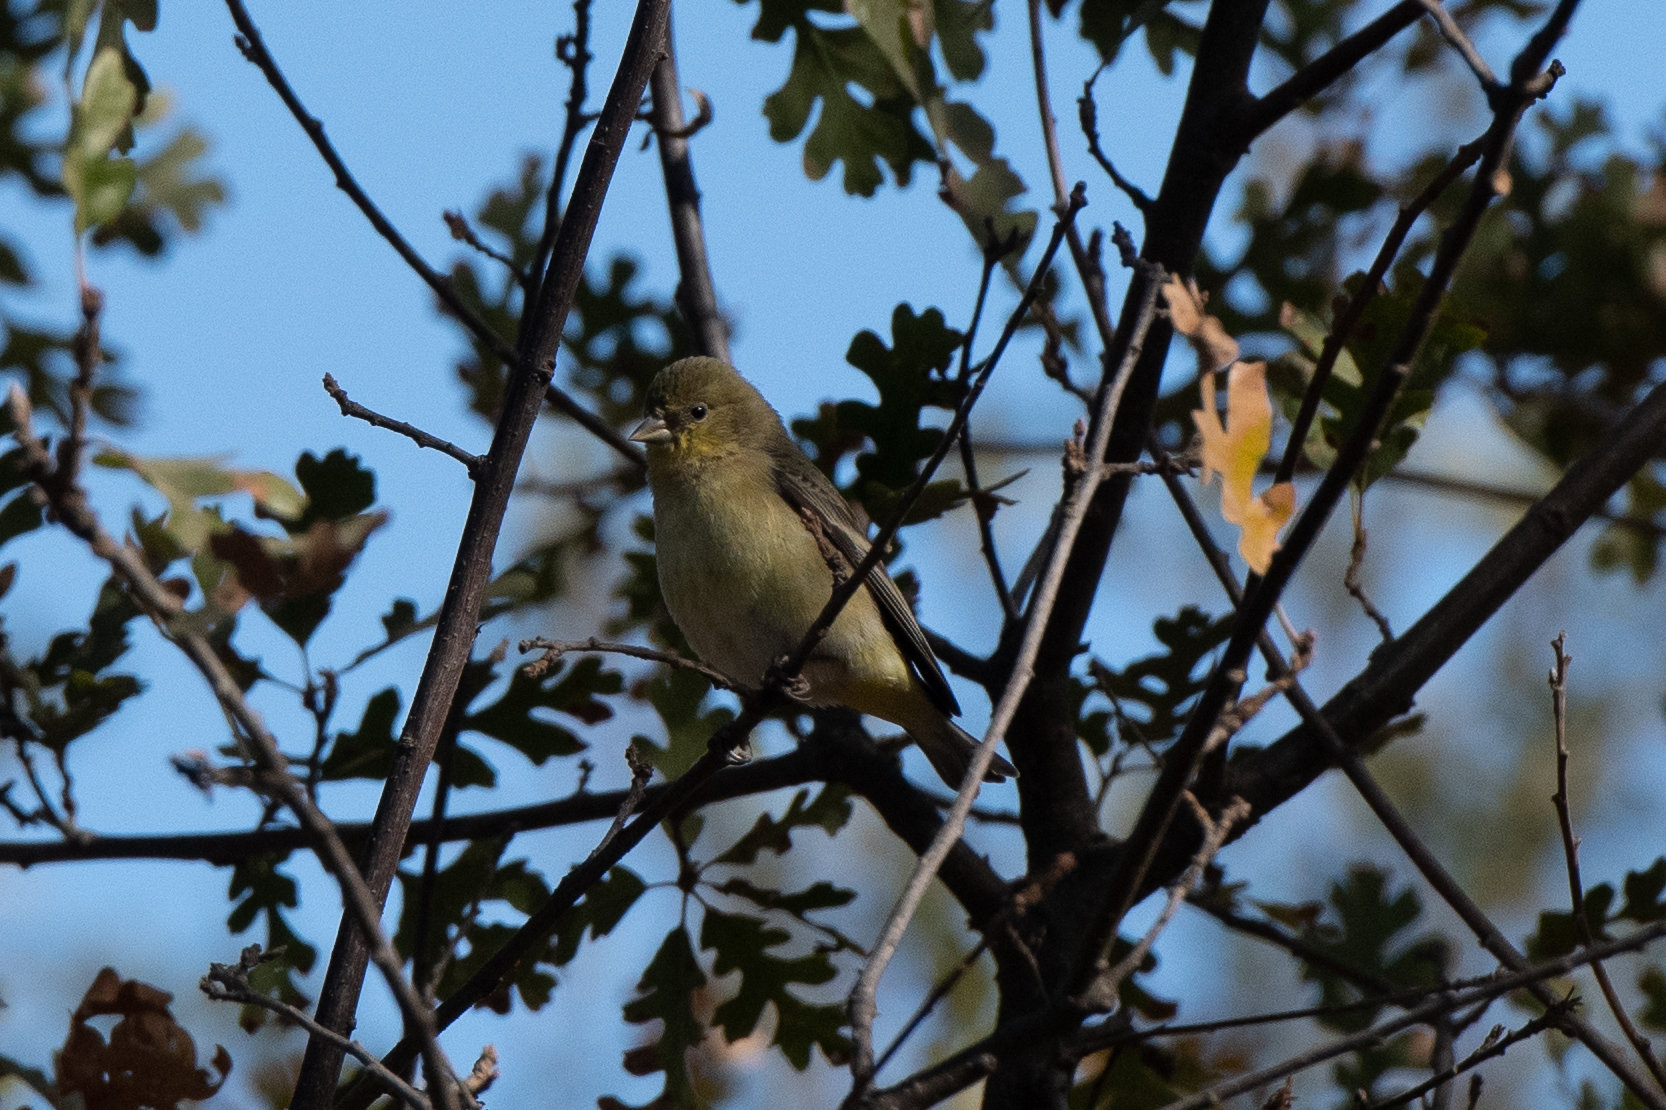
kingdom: Animalia
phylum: Chordata
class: Aves
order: Passeriformes
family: Fringillidae
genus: Spinus
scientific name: Spinus psaltria
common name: Lesser goldfinch
